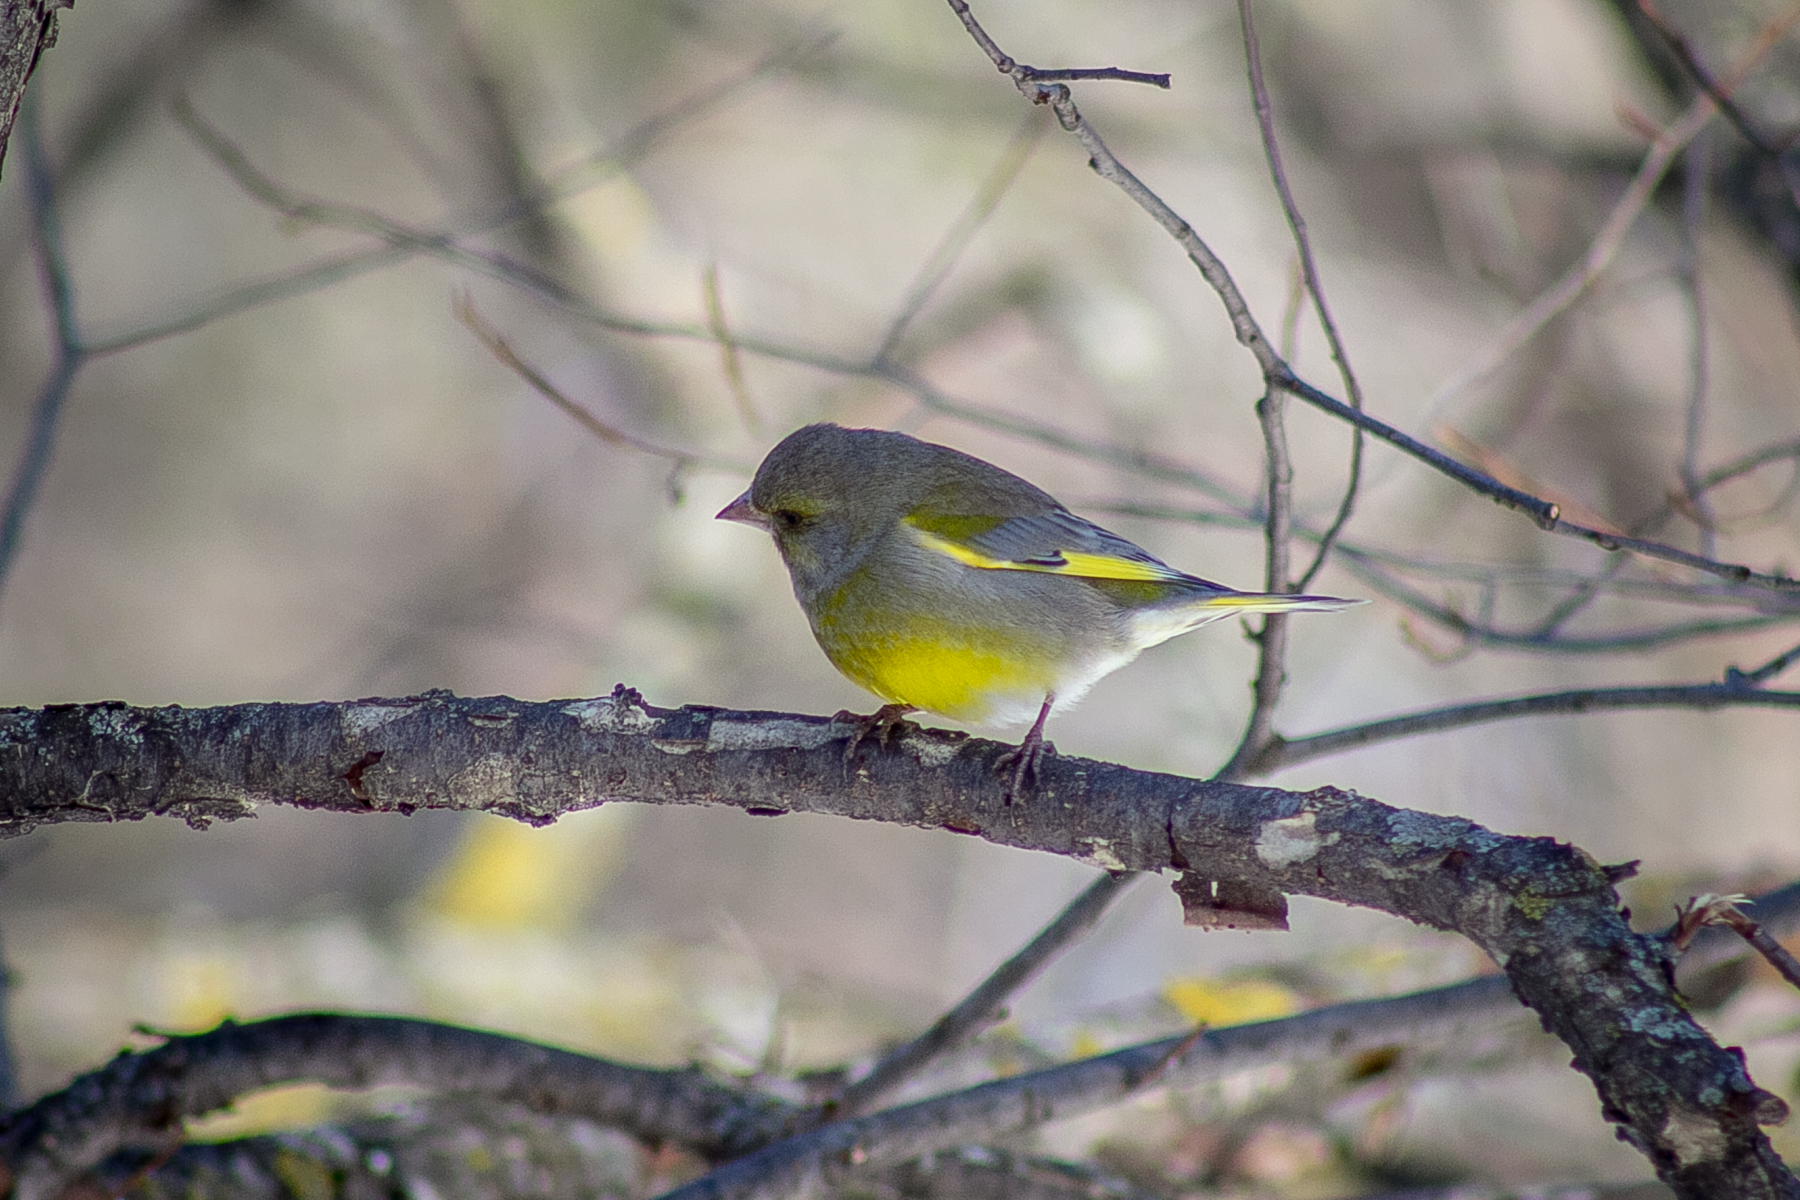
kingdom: Plantae
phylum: Tracheophyta
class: Liliopsida
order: Poales
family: Poaceae
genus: Chloris
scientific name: Chloris chloris
